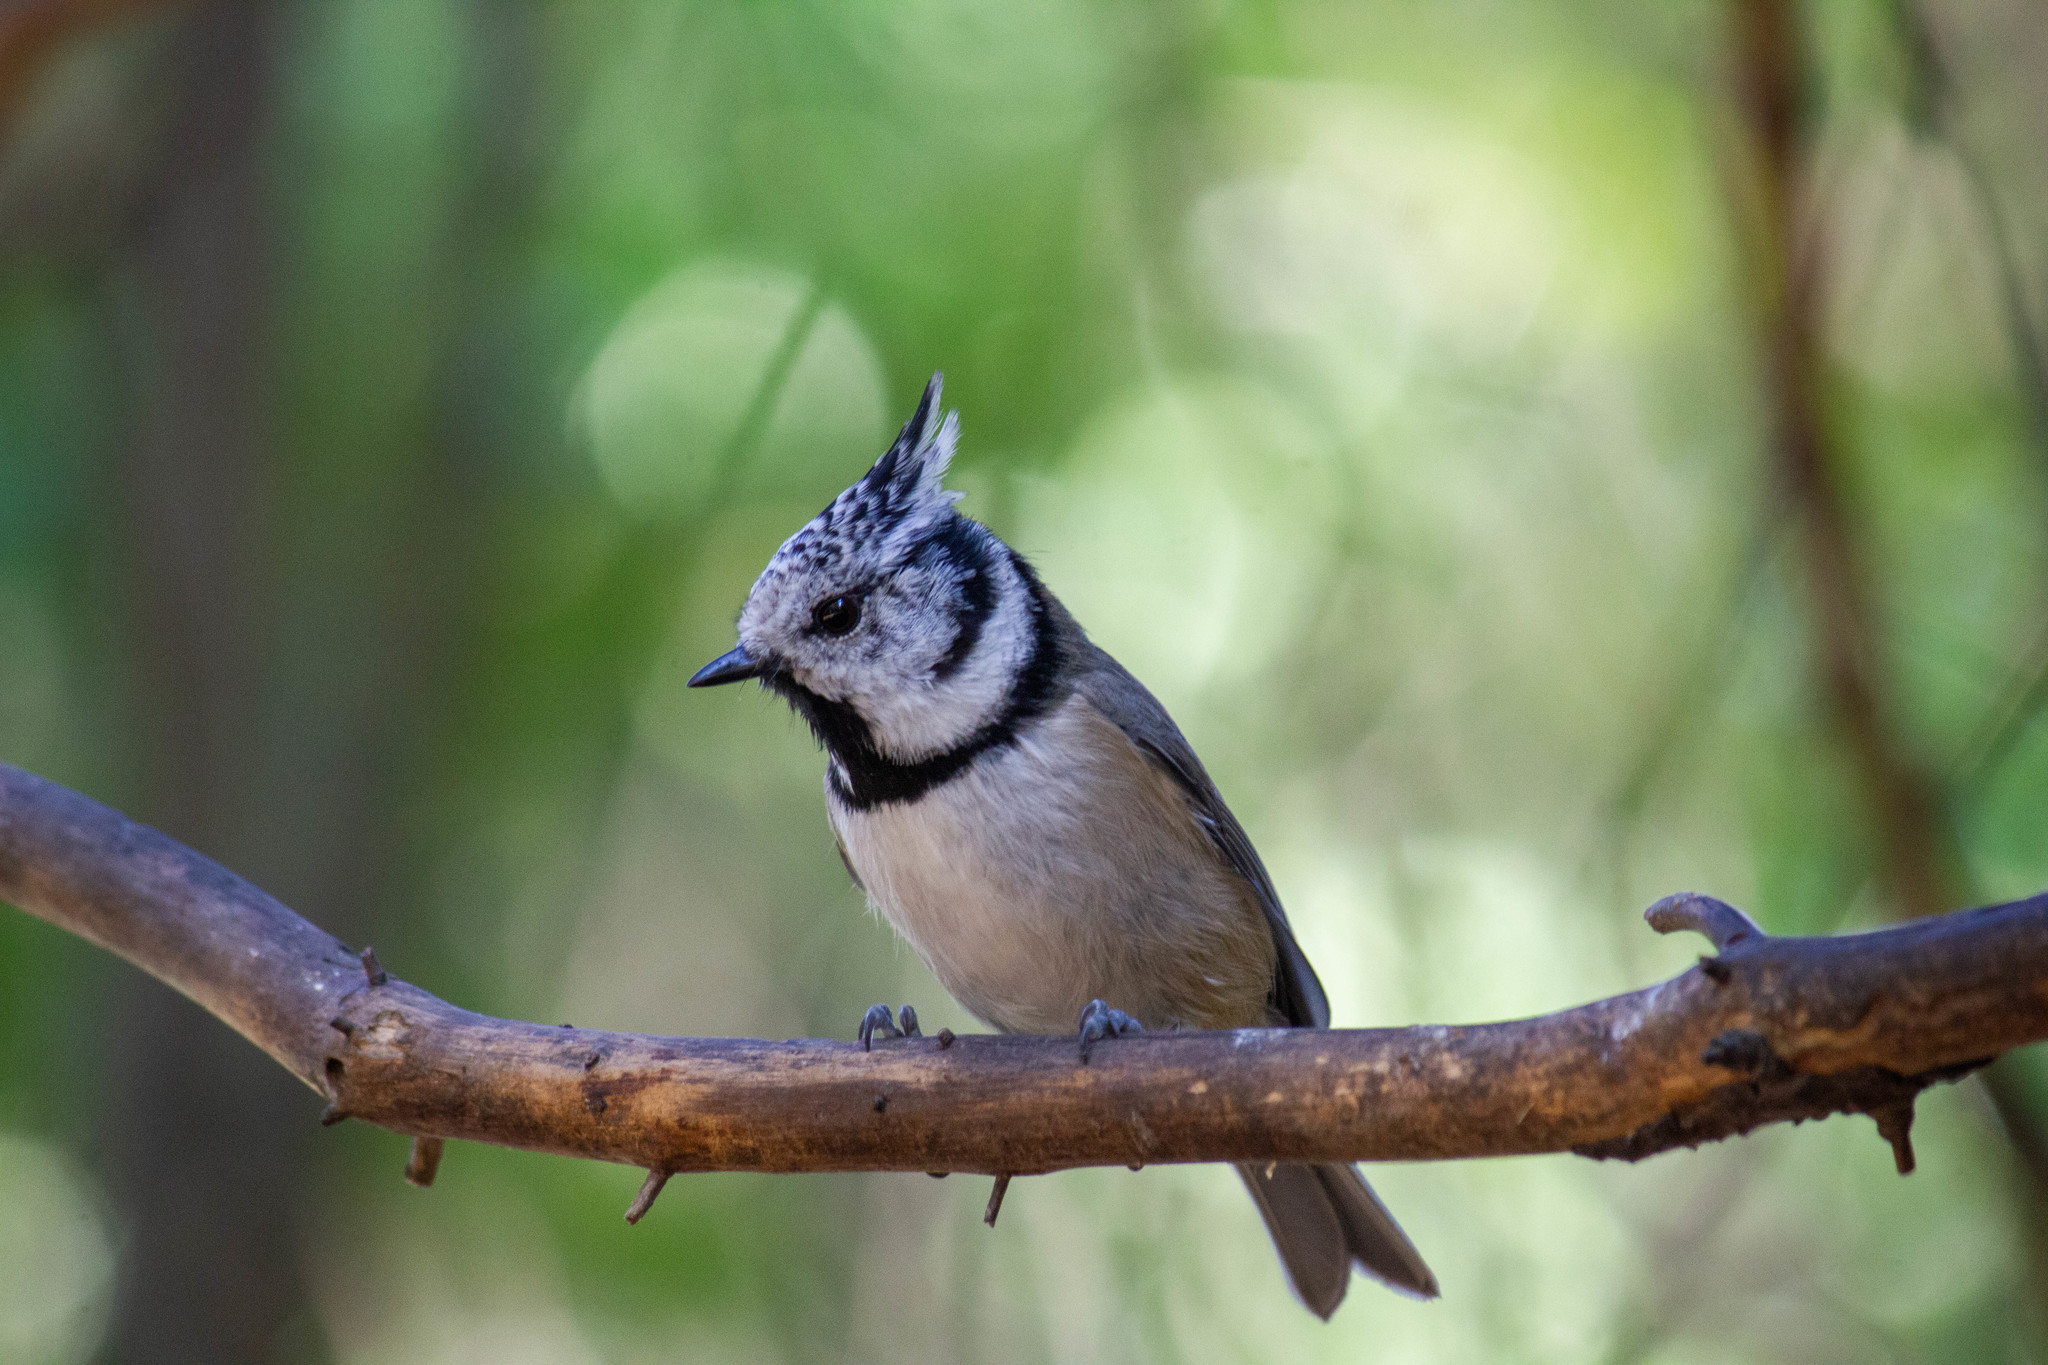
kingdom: Animalia
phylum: Chordata
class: Aves
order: Passeriformes
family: Paridae
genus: Lophophanes
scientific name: Lophophanes cristatus
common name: European crested tit
